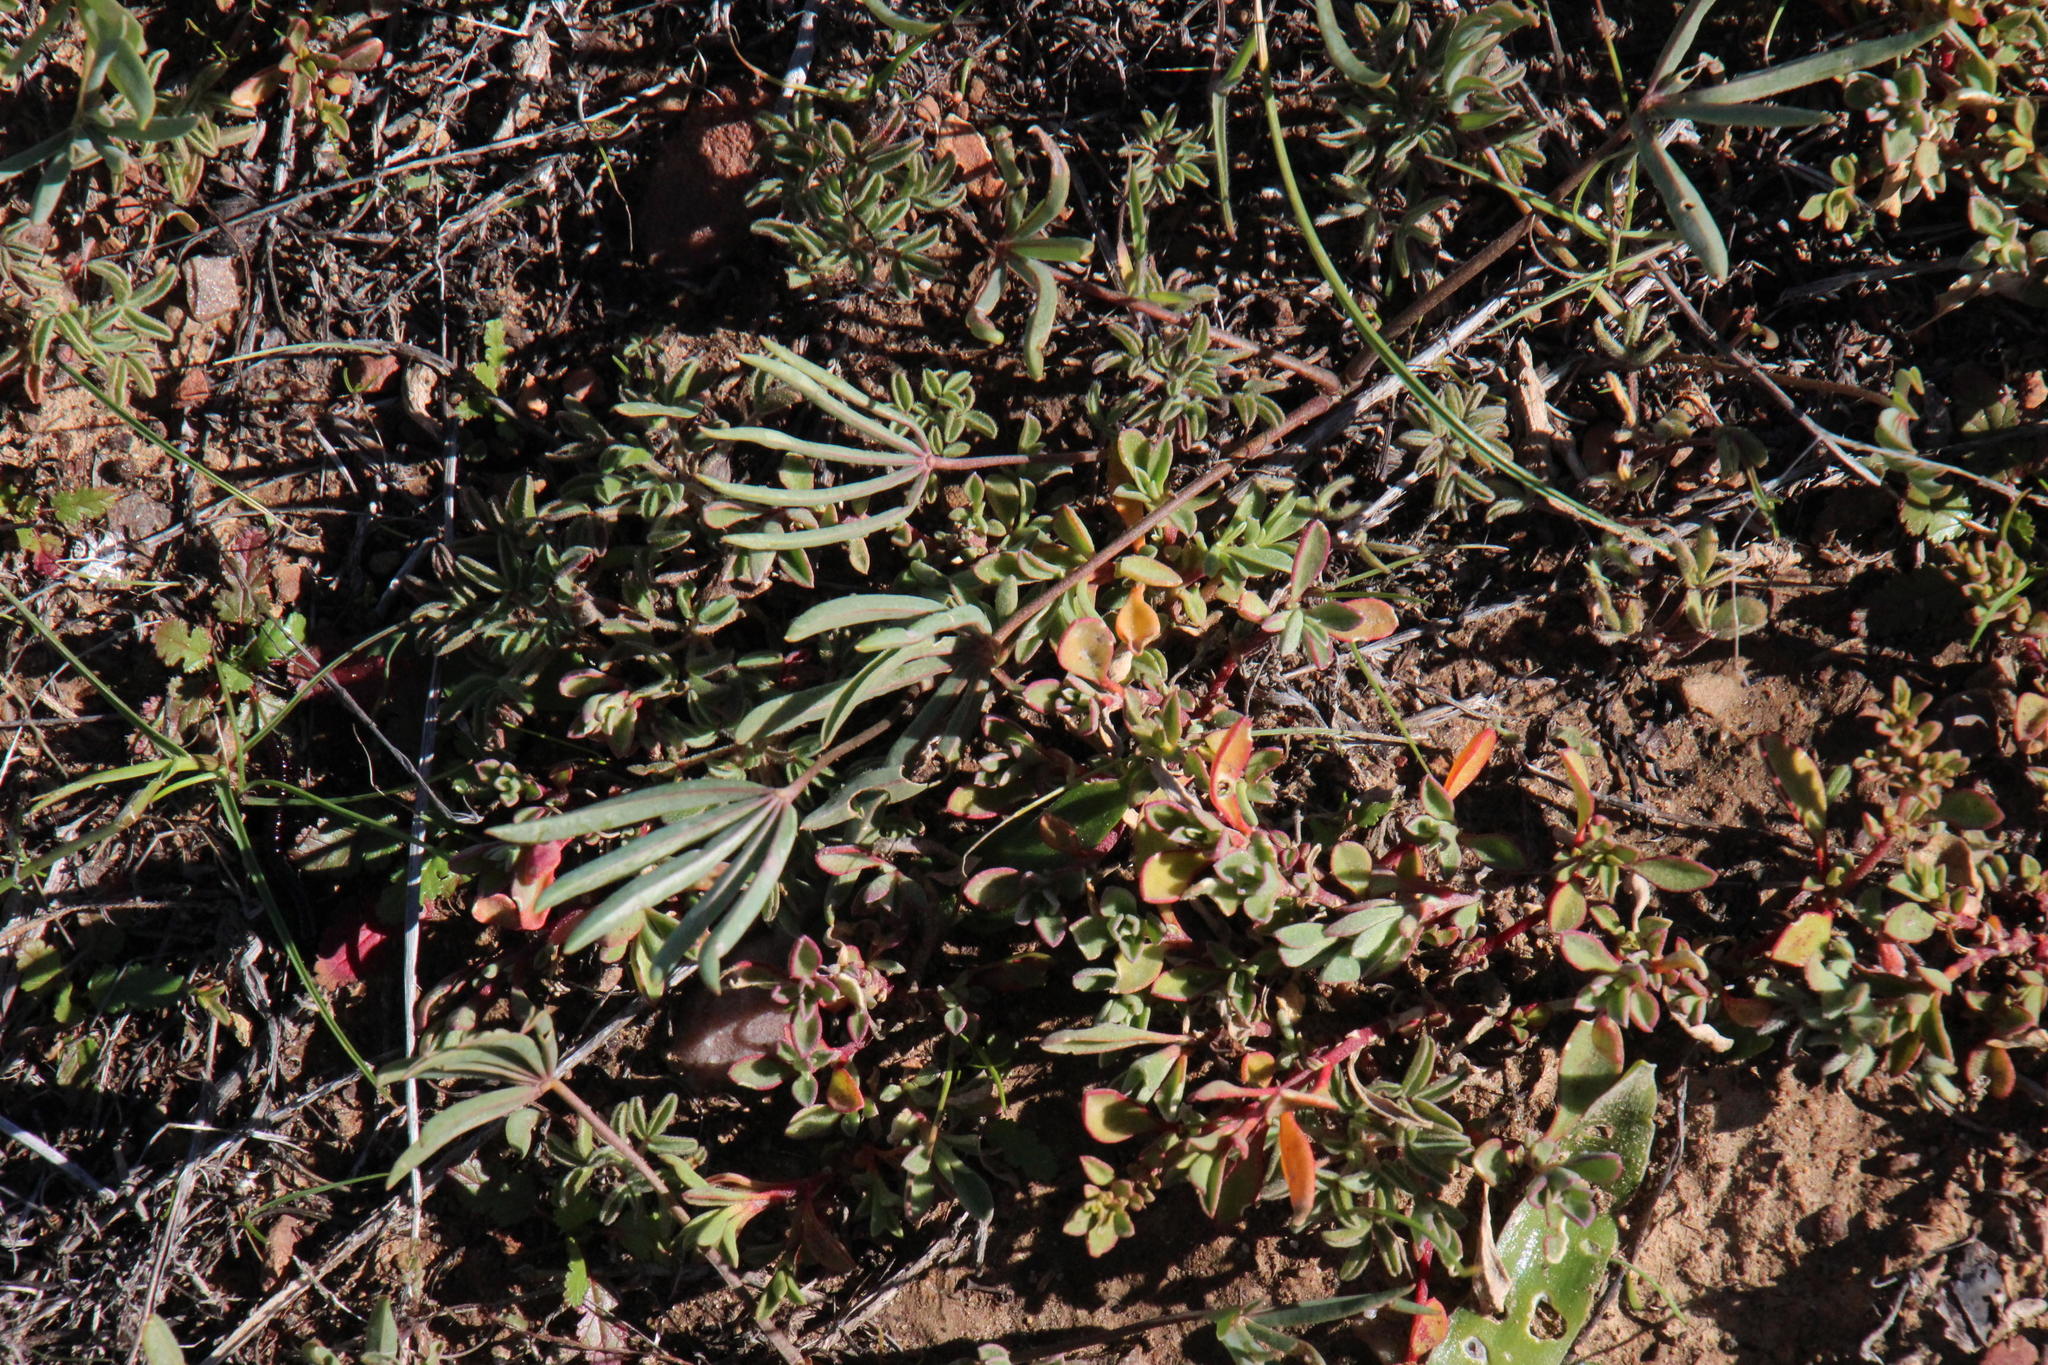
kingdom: Plantae
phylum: Tracheophyta
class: Magnoliopsida
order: Oxalidales
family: Oxalidaceae
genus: Oxalis
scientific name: Oxalis flava
